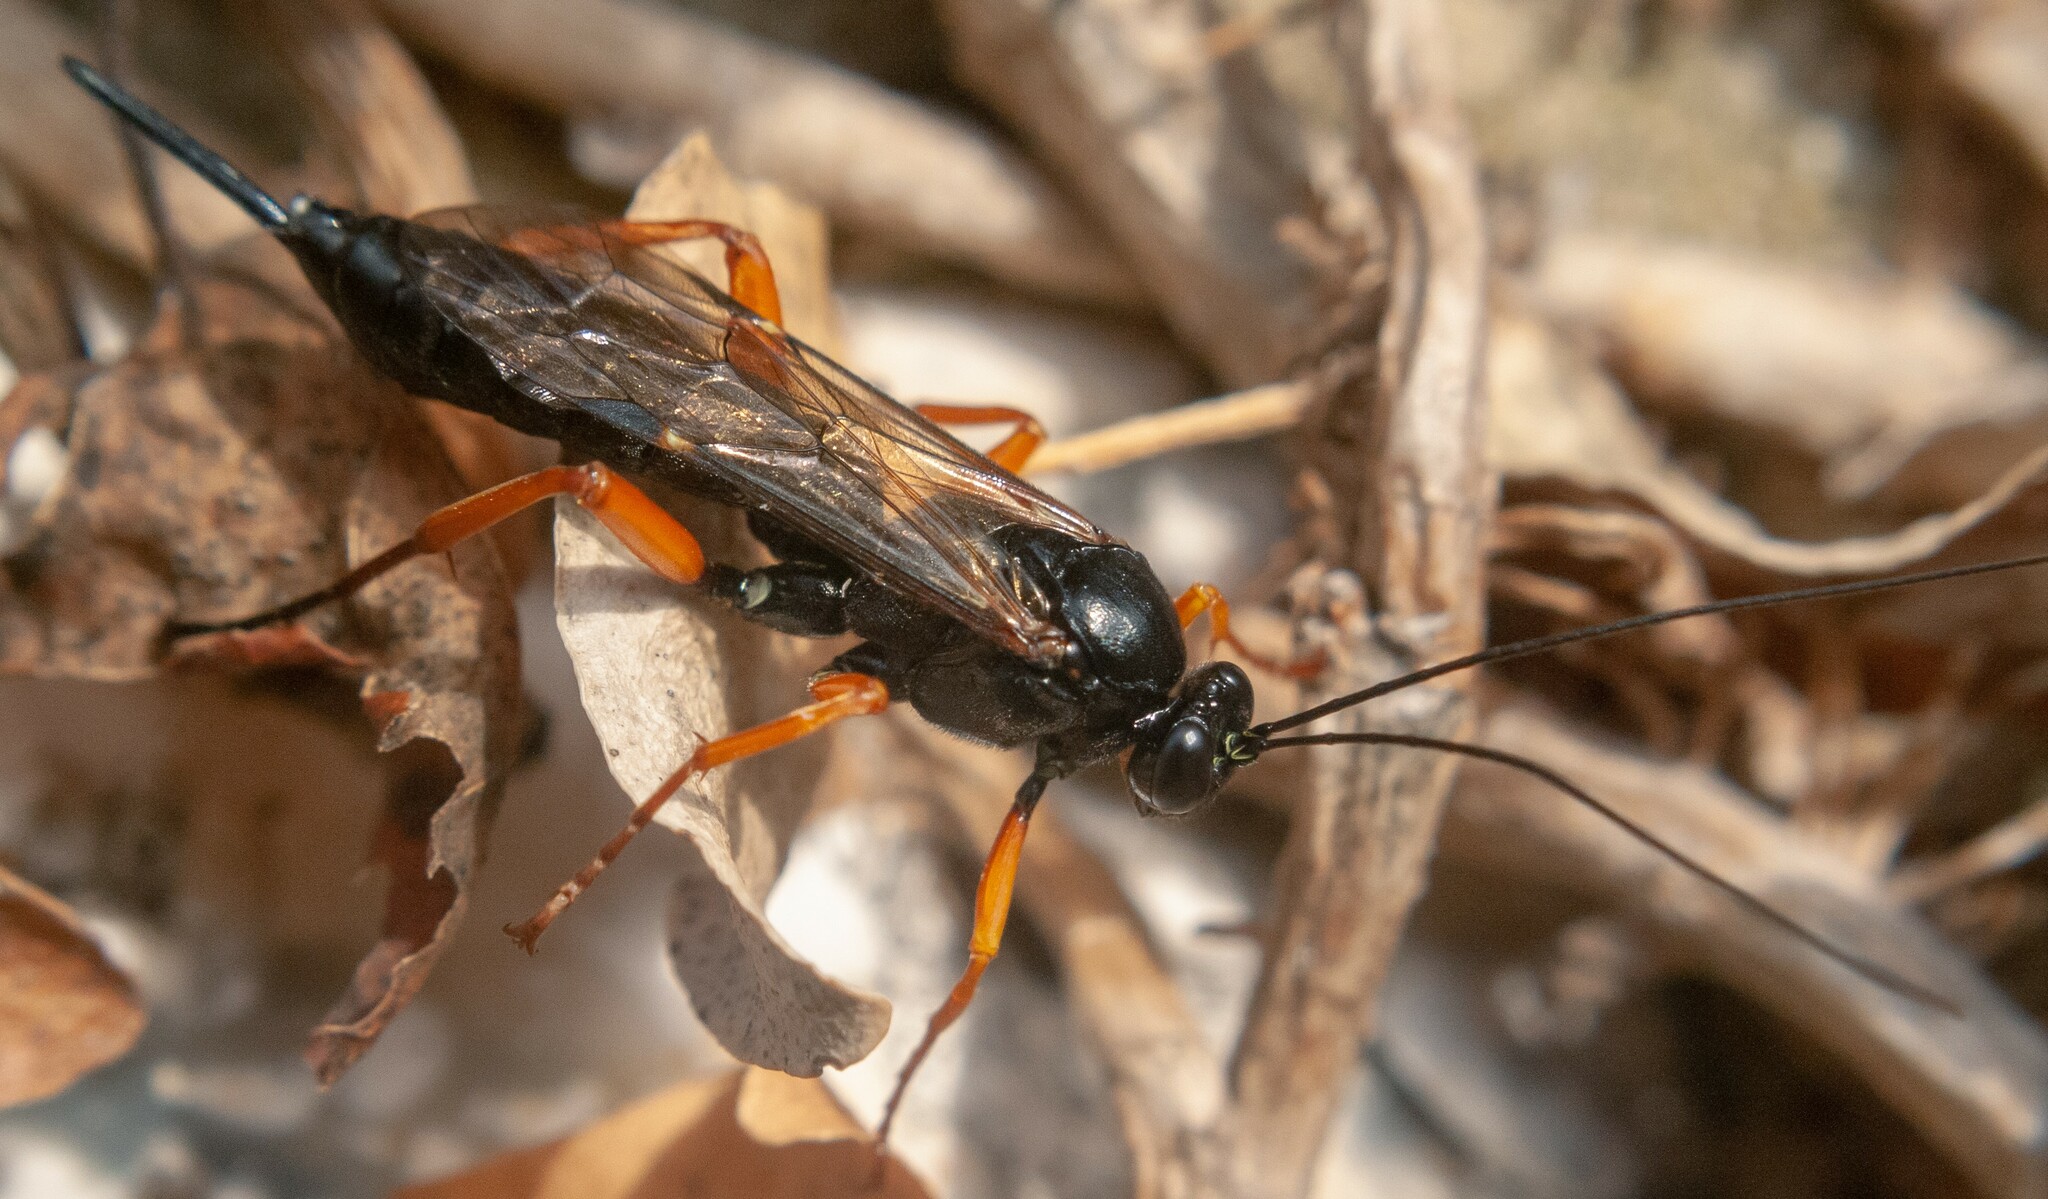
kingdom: Animalia
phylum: Arthropoda
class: Insecta
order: Hymenoptera
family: Ichneumonidae
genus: Pimpla
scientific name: Pimpla rufipes
